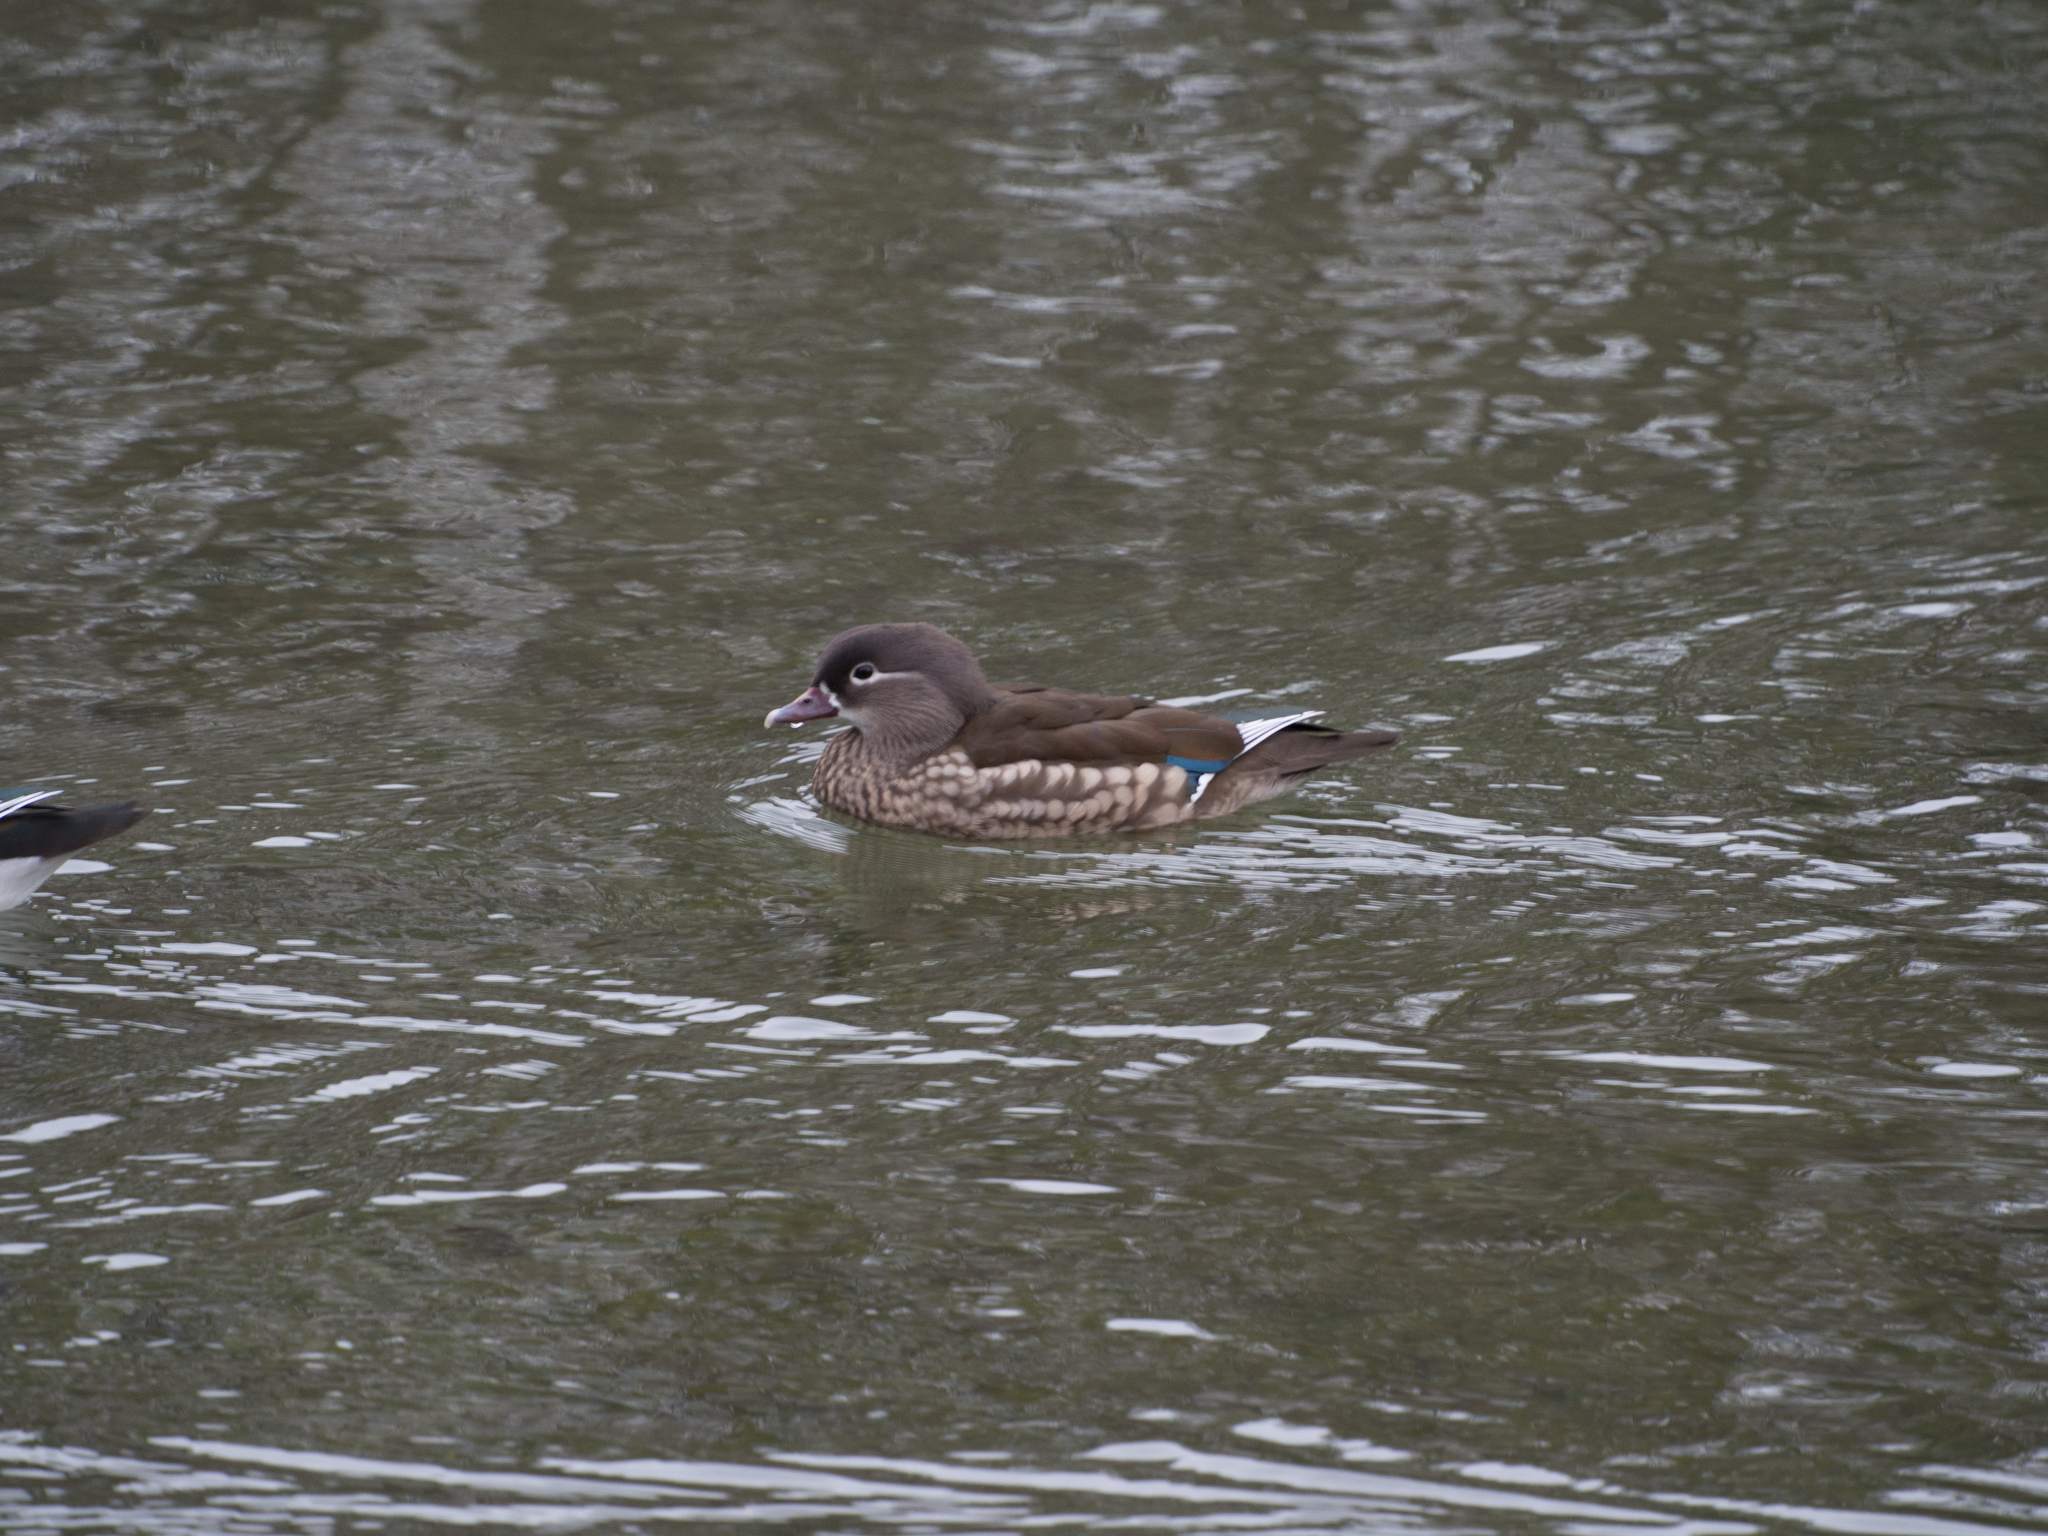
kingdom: Animalia
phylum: Chordata
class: Aves
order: Anseriformes
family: Anatidae
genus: Aix
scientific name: Aix galericulata
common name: Mandarin duck
